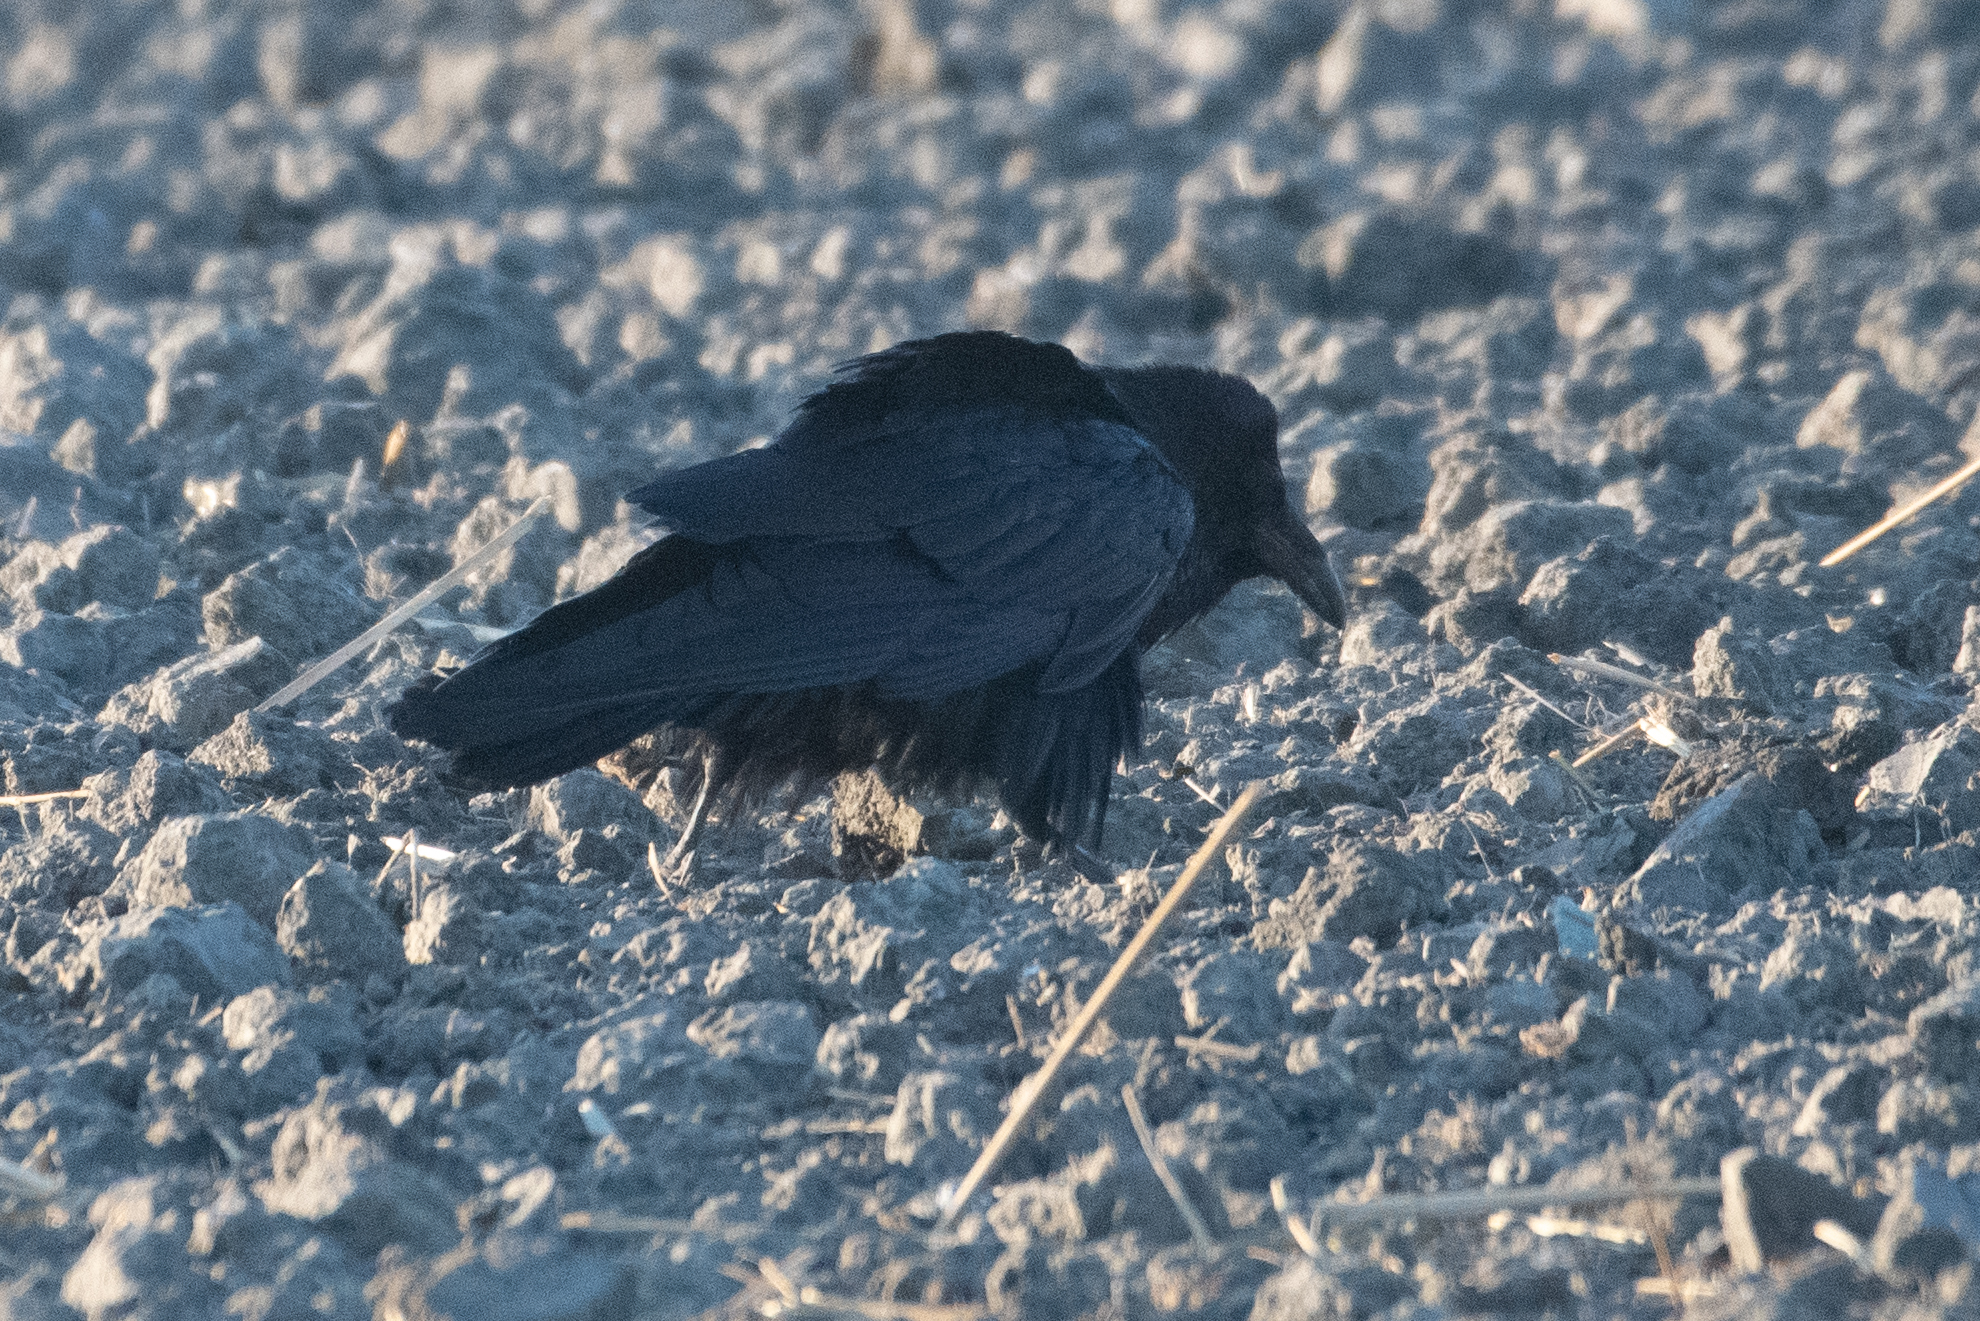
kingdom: Animalia
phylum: Chordata
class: Aves
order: Passeriformes
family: Corvidae
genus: Corvus
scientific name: Corvus corax
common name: Common raven
